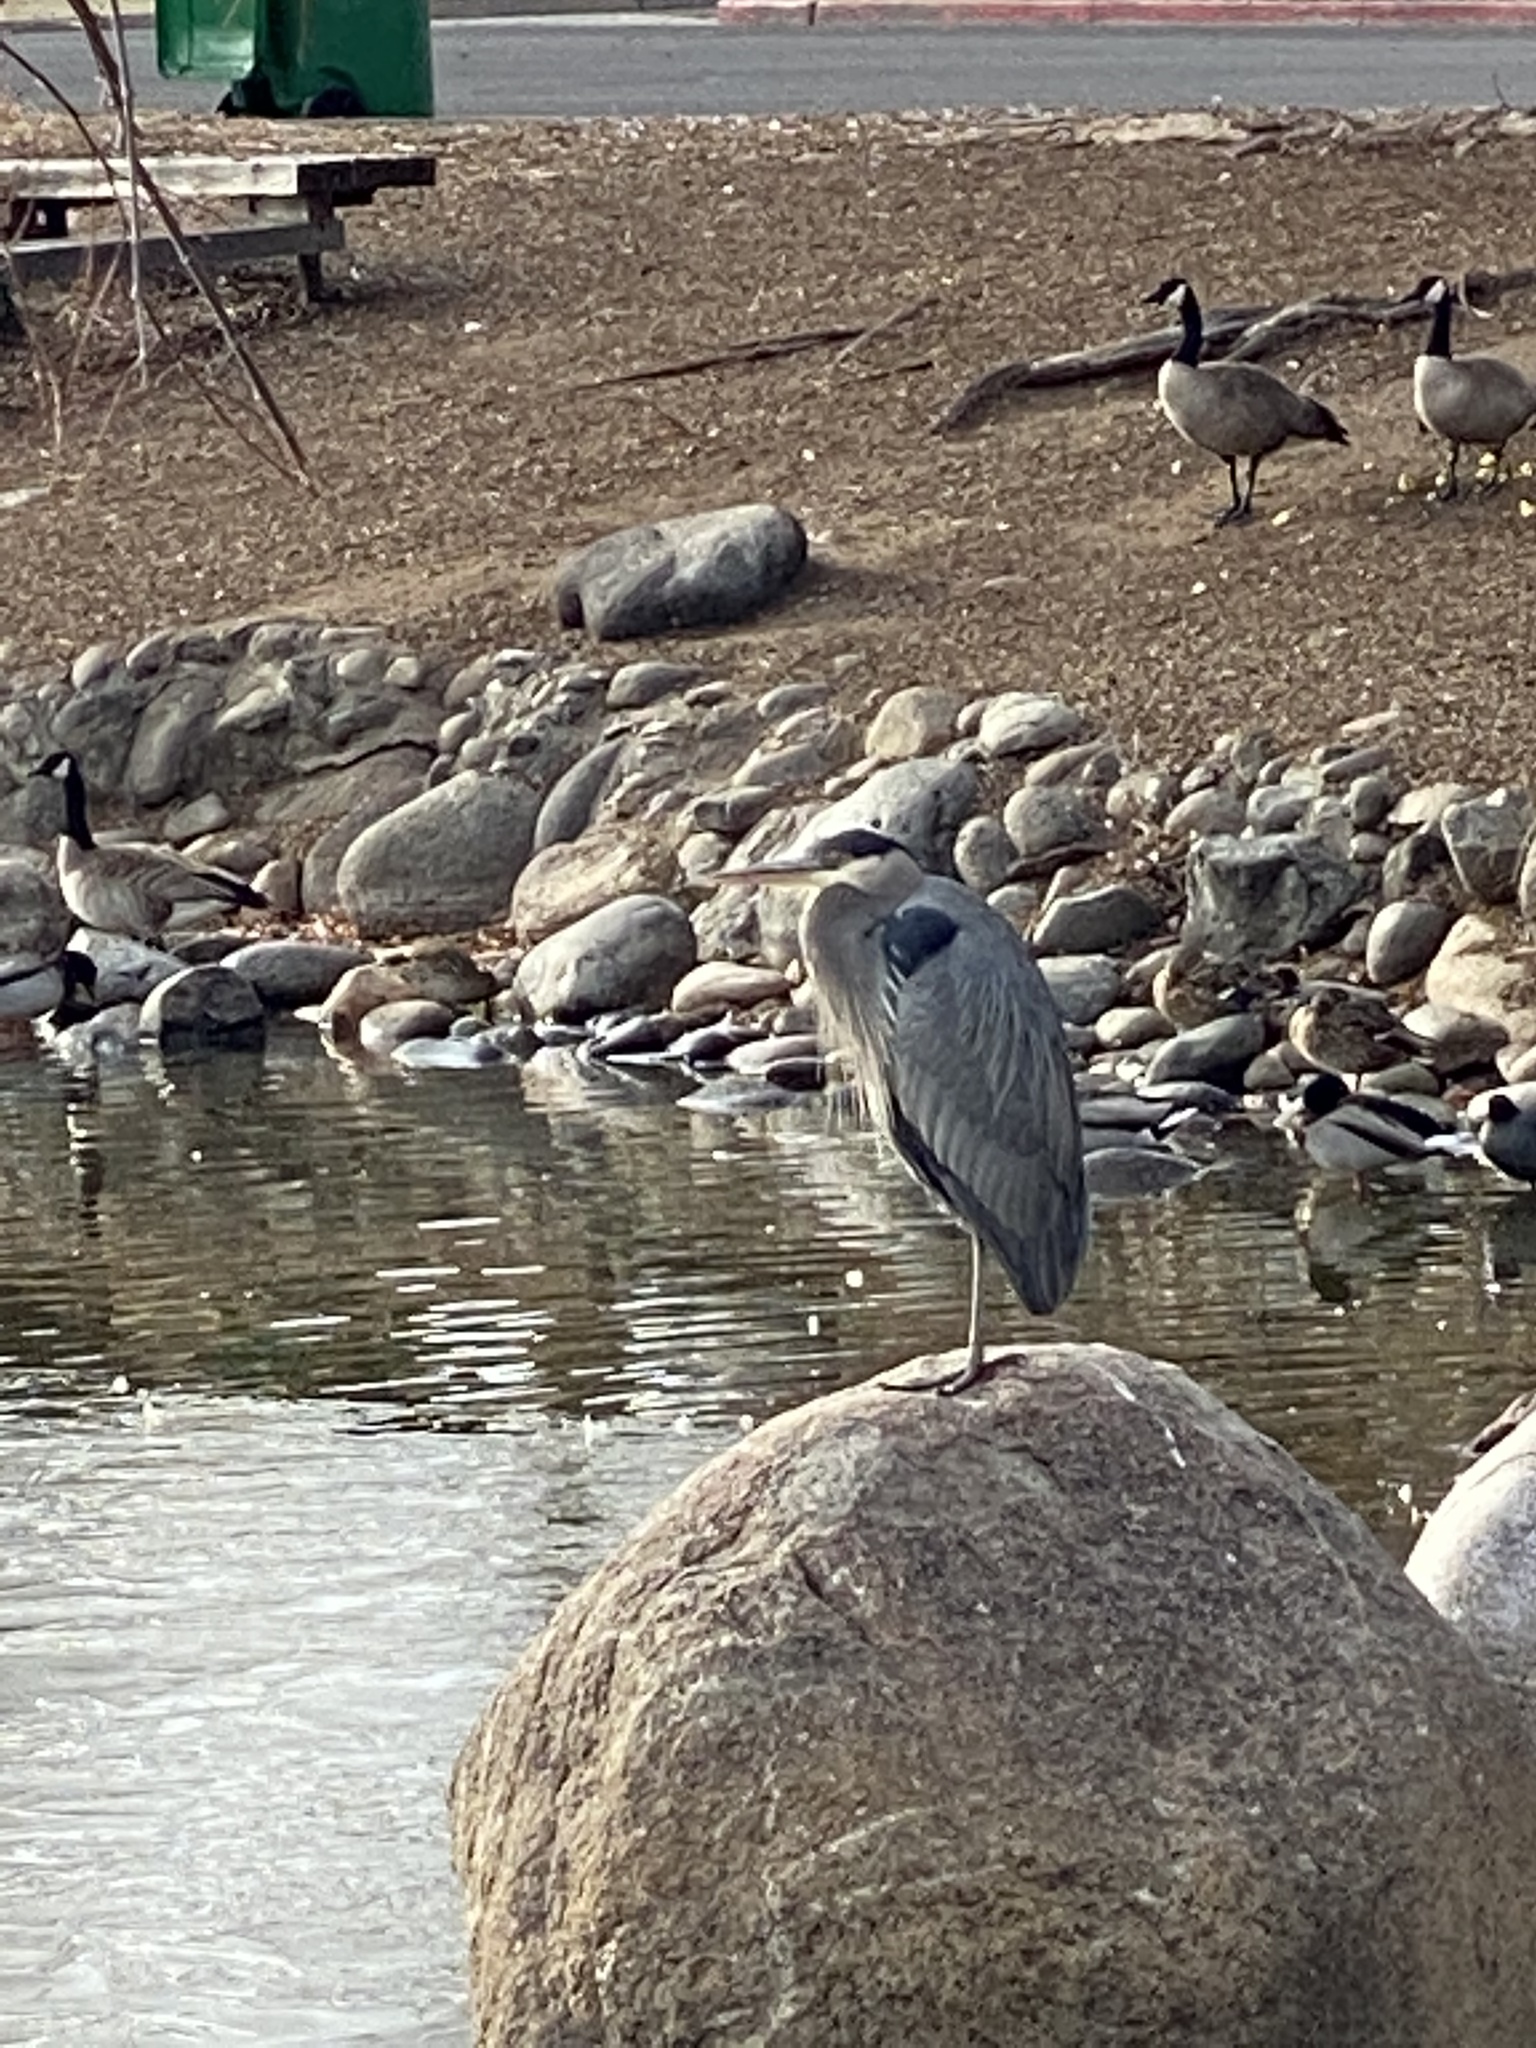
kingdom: Animalia
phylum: Chordata
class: Aves
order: Pelecaniformes
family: Ardeidae
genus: Ardea
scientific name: Ardea herodias
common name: Great blue heron
